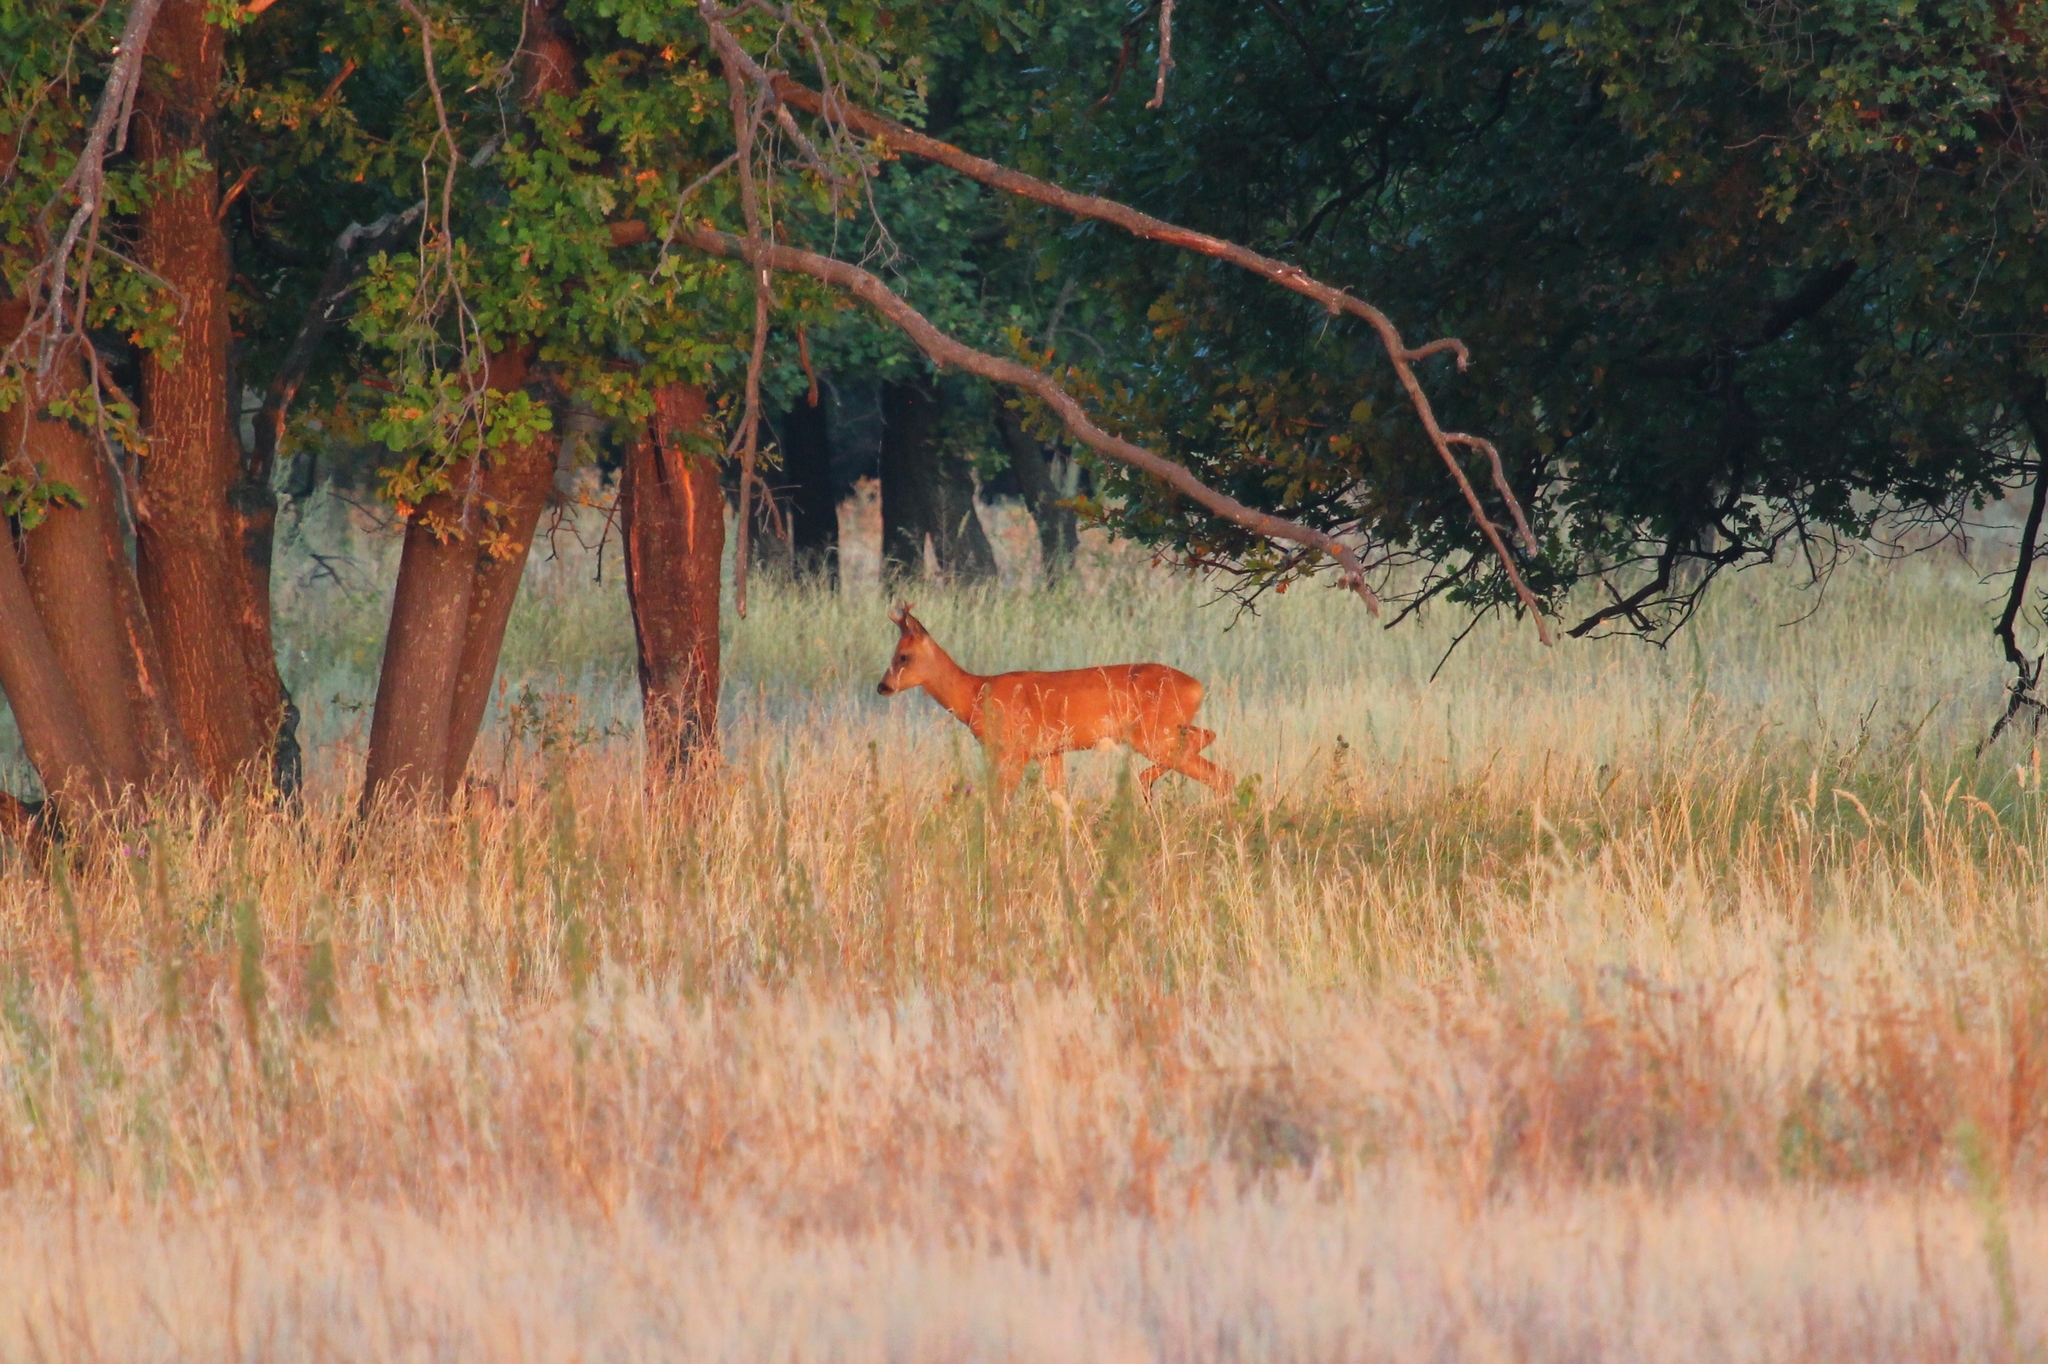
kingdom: Animalia
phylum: Chordata
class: Mammalia
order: Artiodactyla
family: Cervidae
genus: Capreolus
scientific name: Capreolus pygargus
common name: Siberian roe
